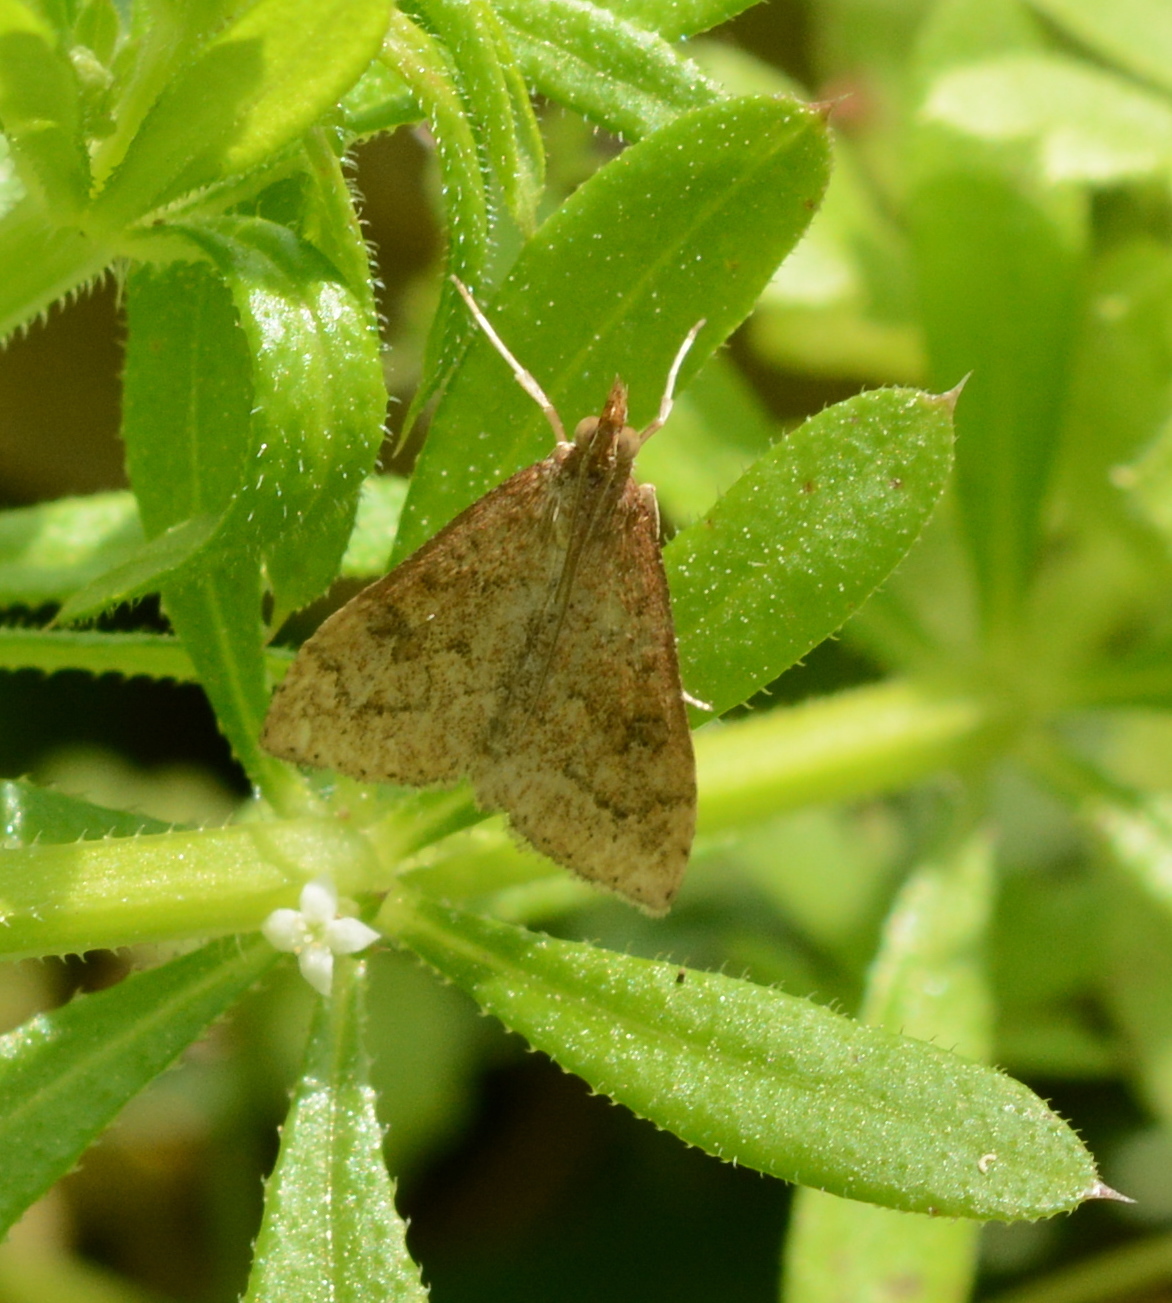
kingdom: Animalia
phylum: Arthropoda
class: Insecta
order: Lepidoptera
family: Crambidae
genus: Udea
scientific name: Udea rubigalis
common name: Celery leaftier moth
